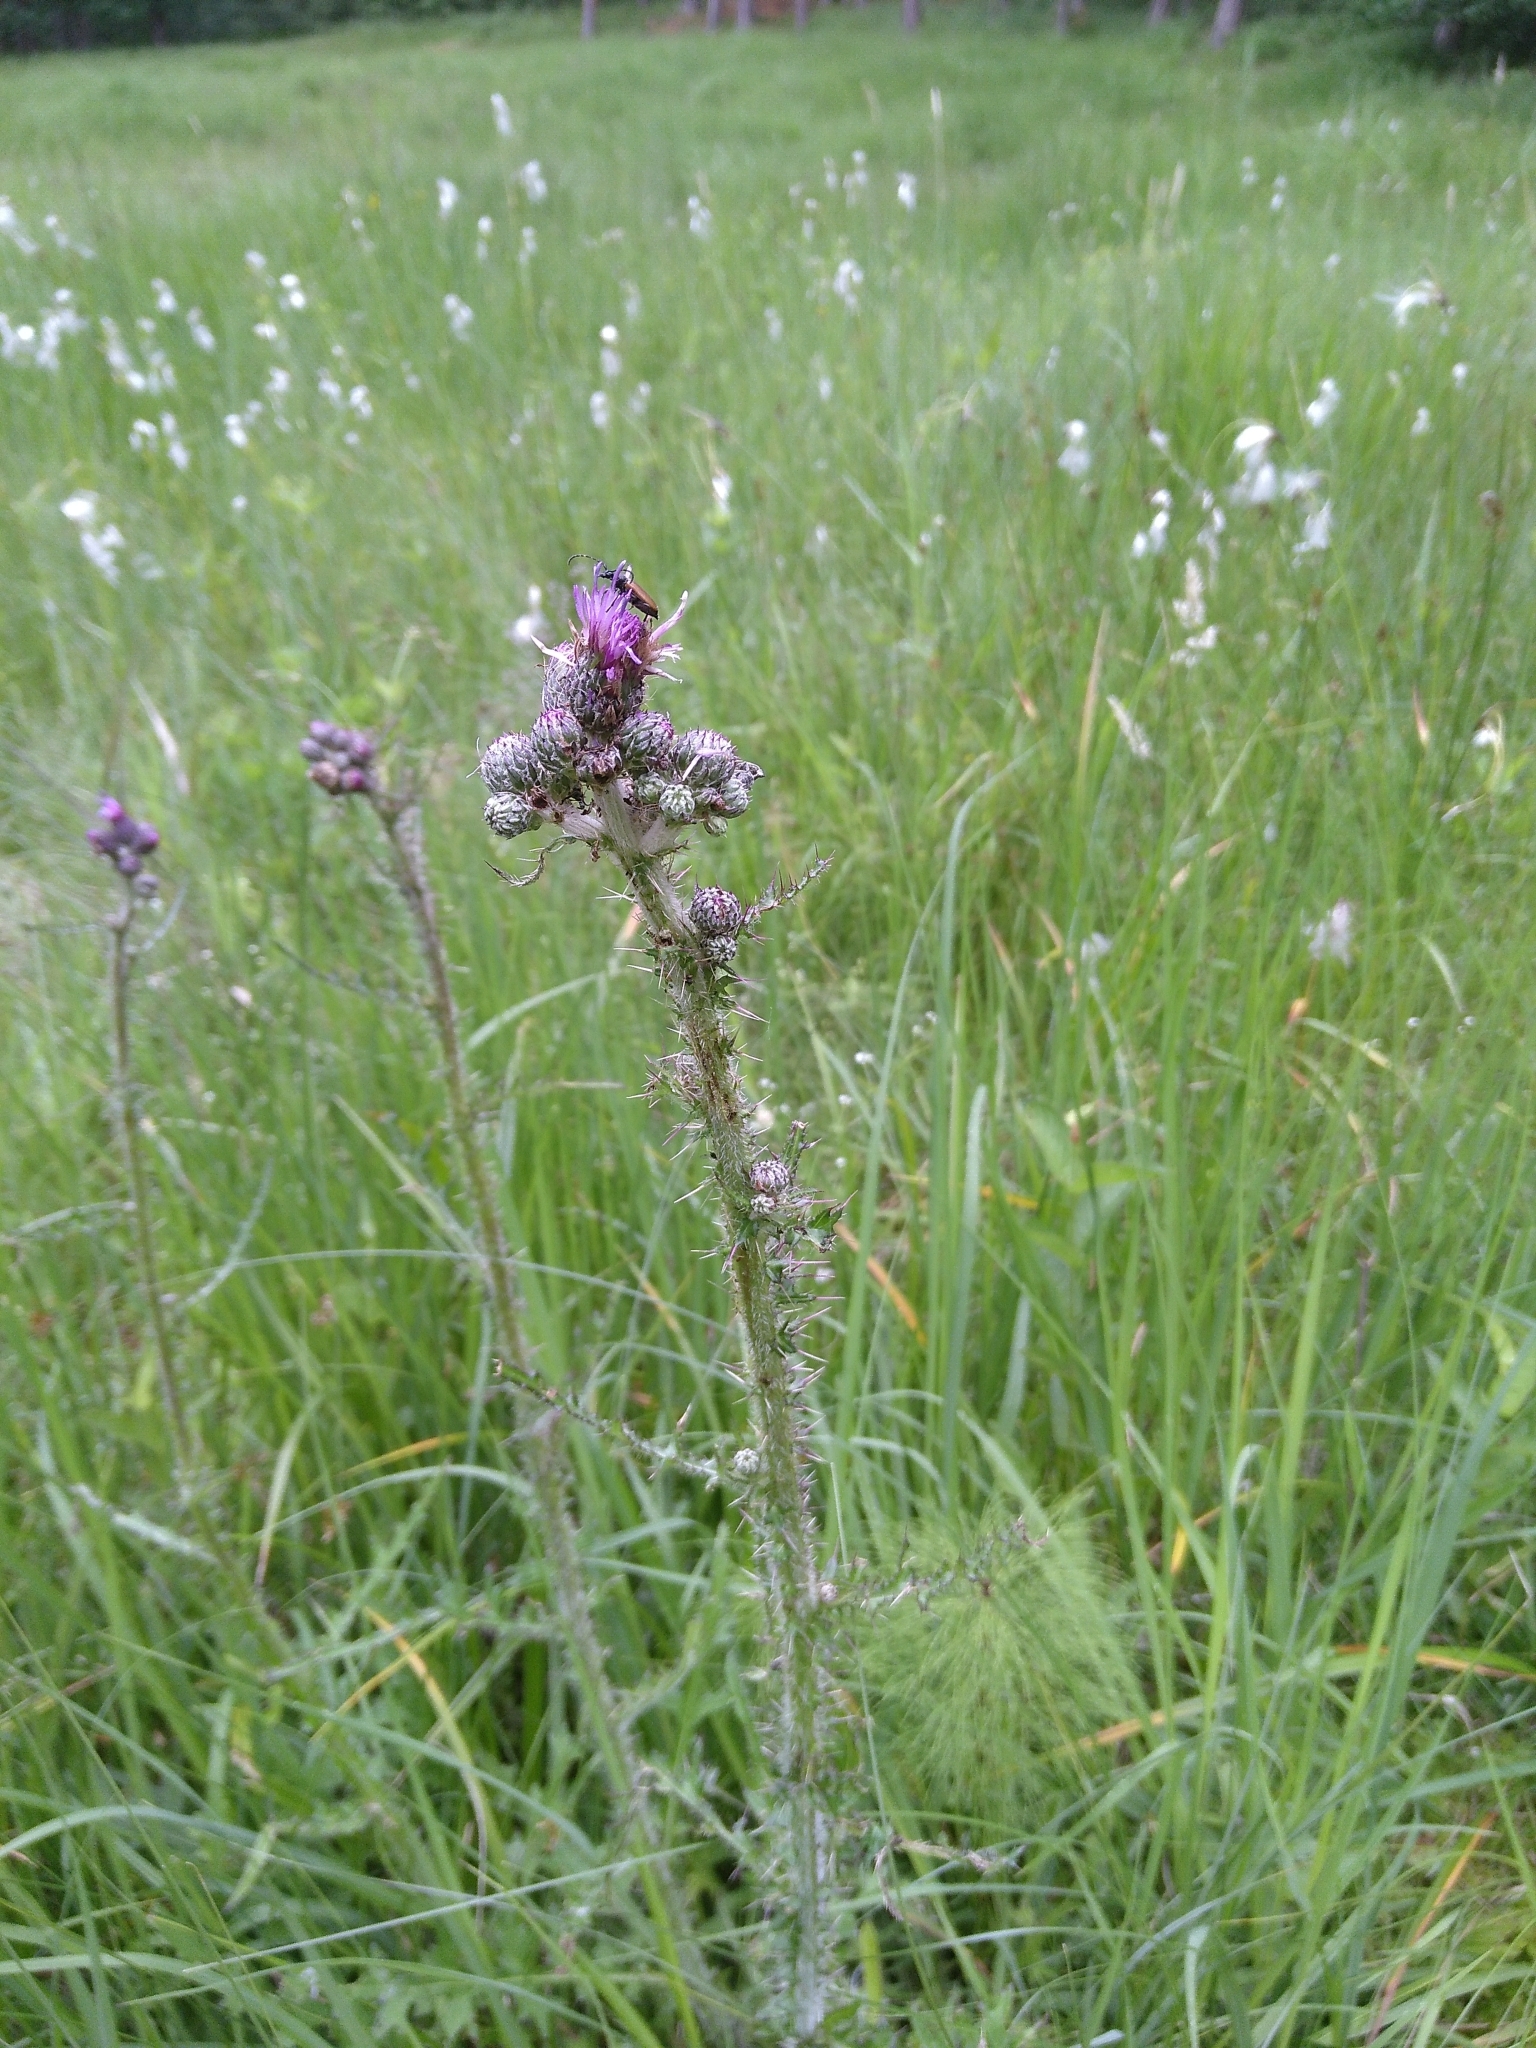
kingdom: Plantae
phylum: Tracheophyta
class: Magnoliopsida
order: Asterales
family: Asteraceae
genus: Cirsium
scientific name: Cirsium palustre
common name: Marsh thistle
